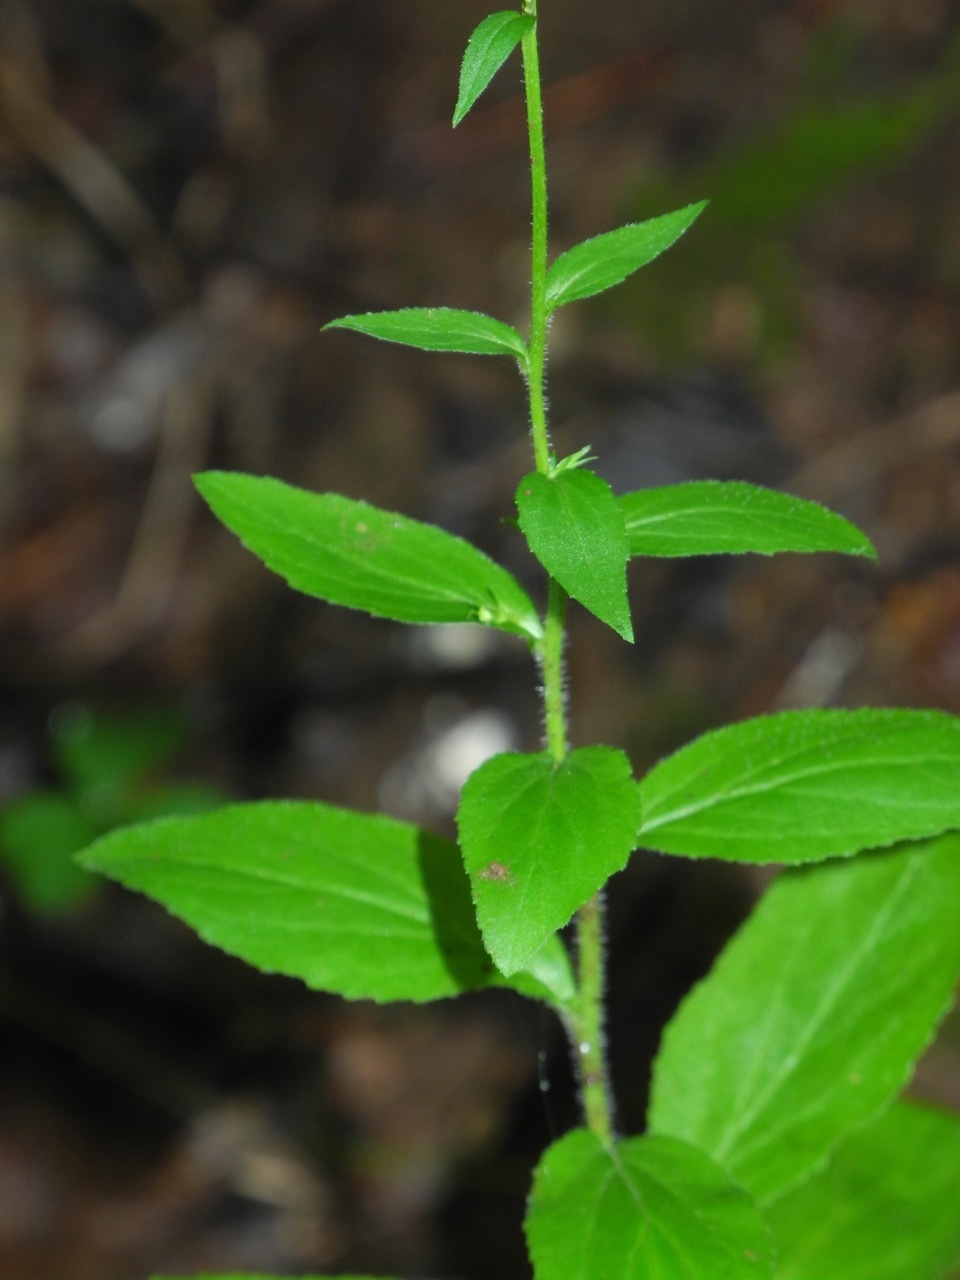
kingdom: Plantae
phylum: Tracheophyta
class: Magnoliopsida
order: Asterales
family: Campanulaceae
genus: Lobelia
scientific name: Lobelia inflata
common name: Indian tobacco
